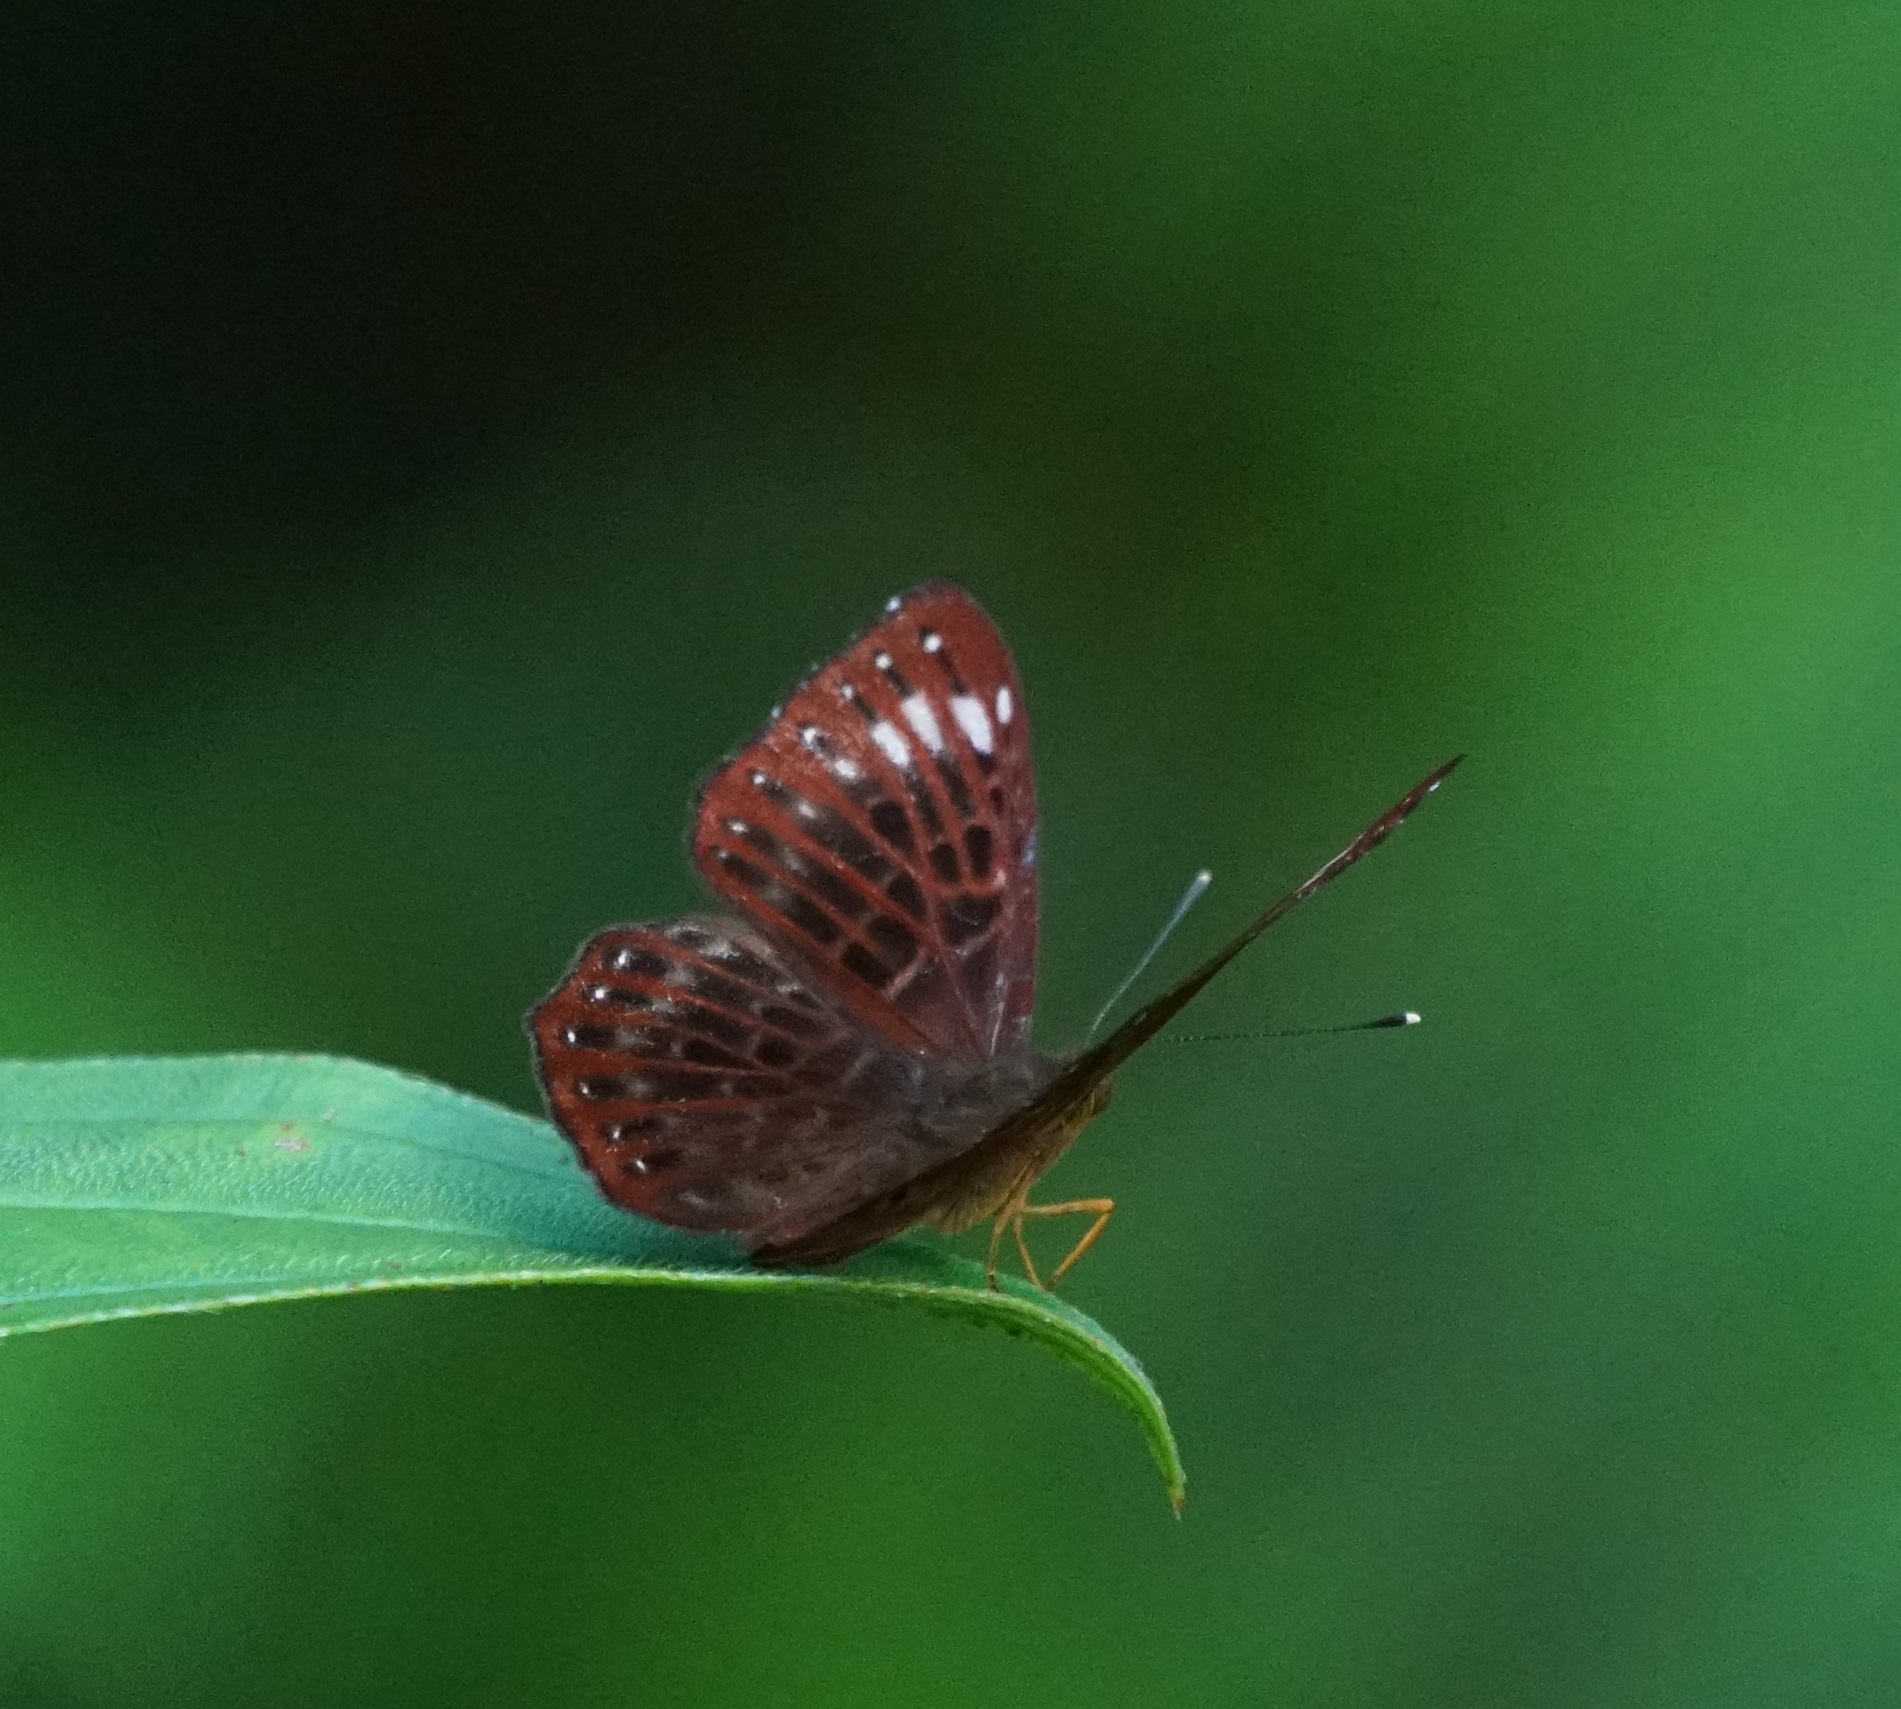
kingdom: Animalia
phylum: Arthropoda
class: Insecta
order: Lepidoptera
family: Riodinidae
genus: Zemeros
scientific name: Zemeros flegyas
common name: Punchinello
